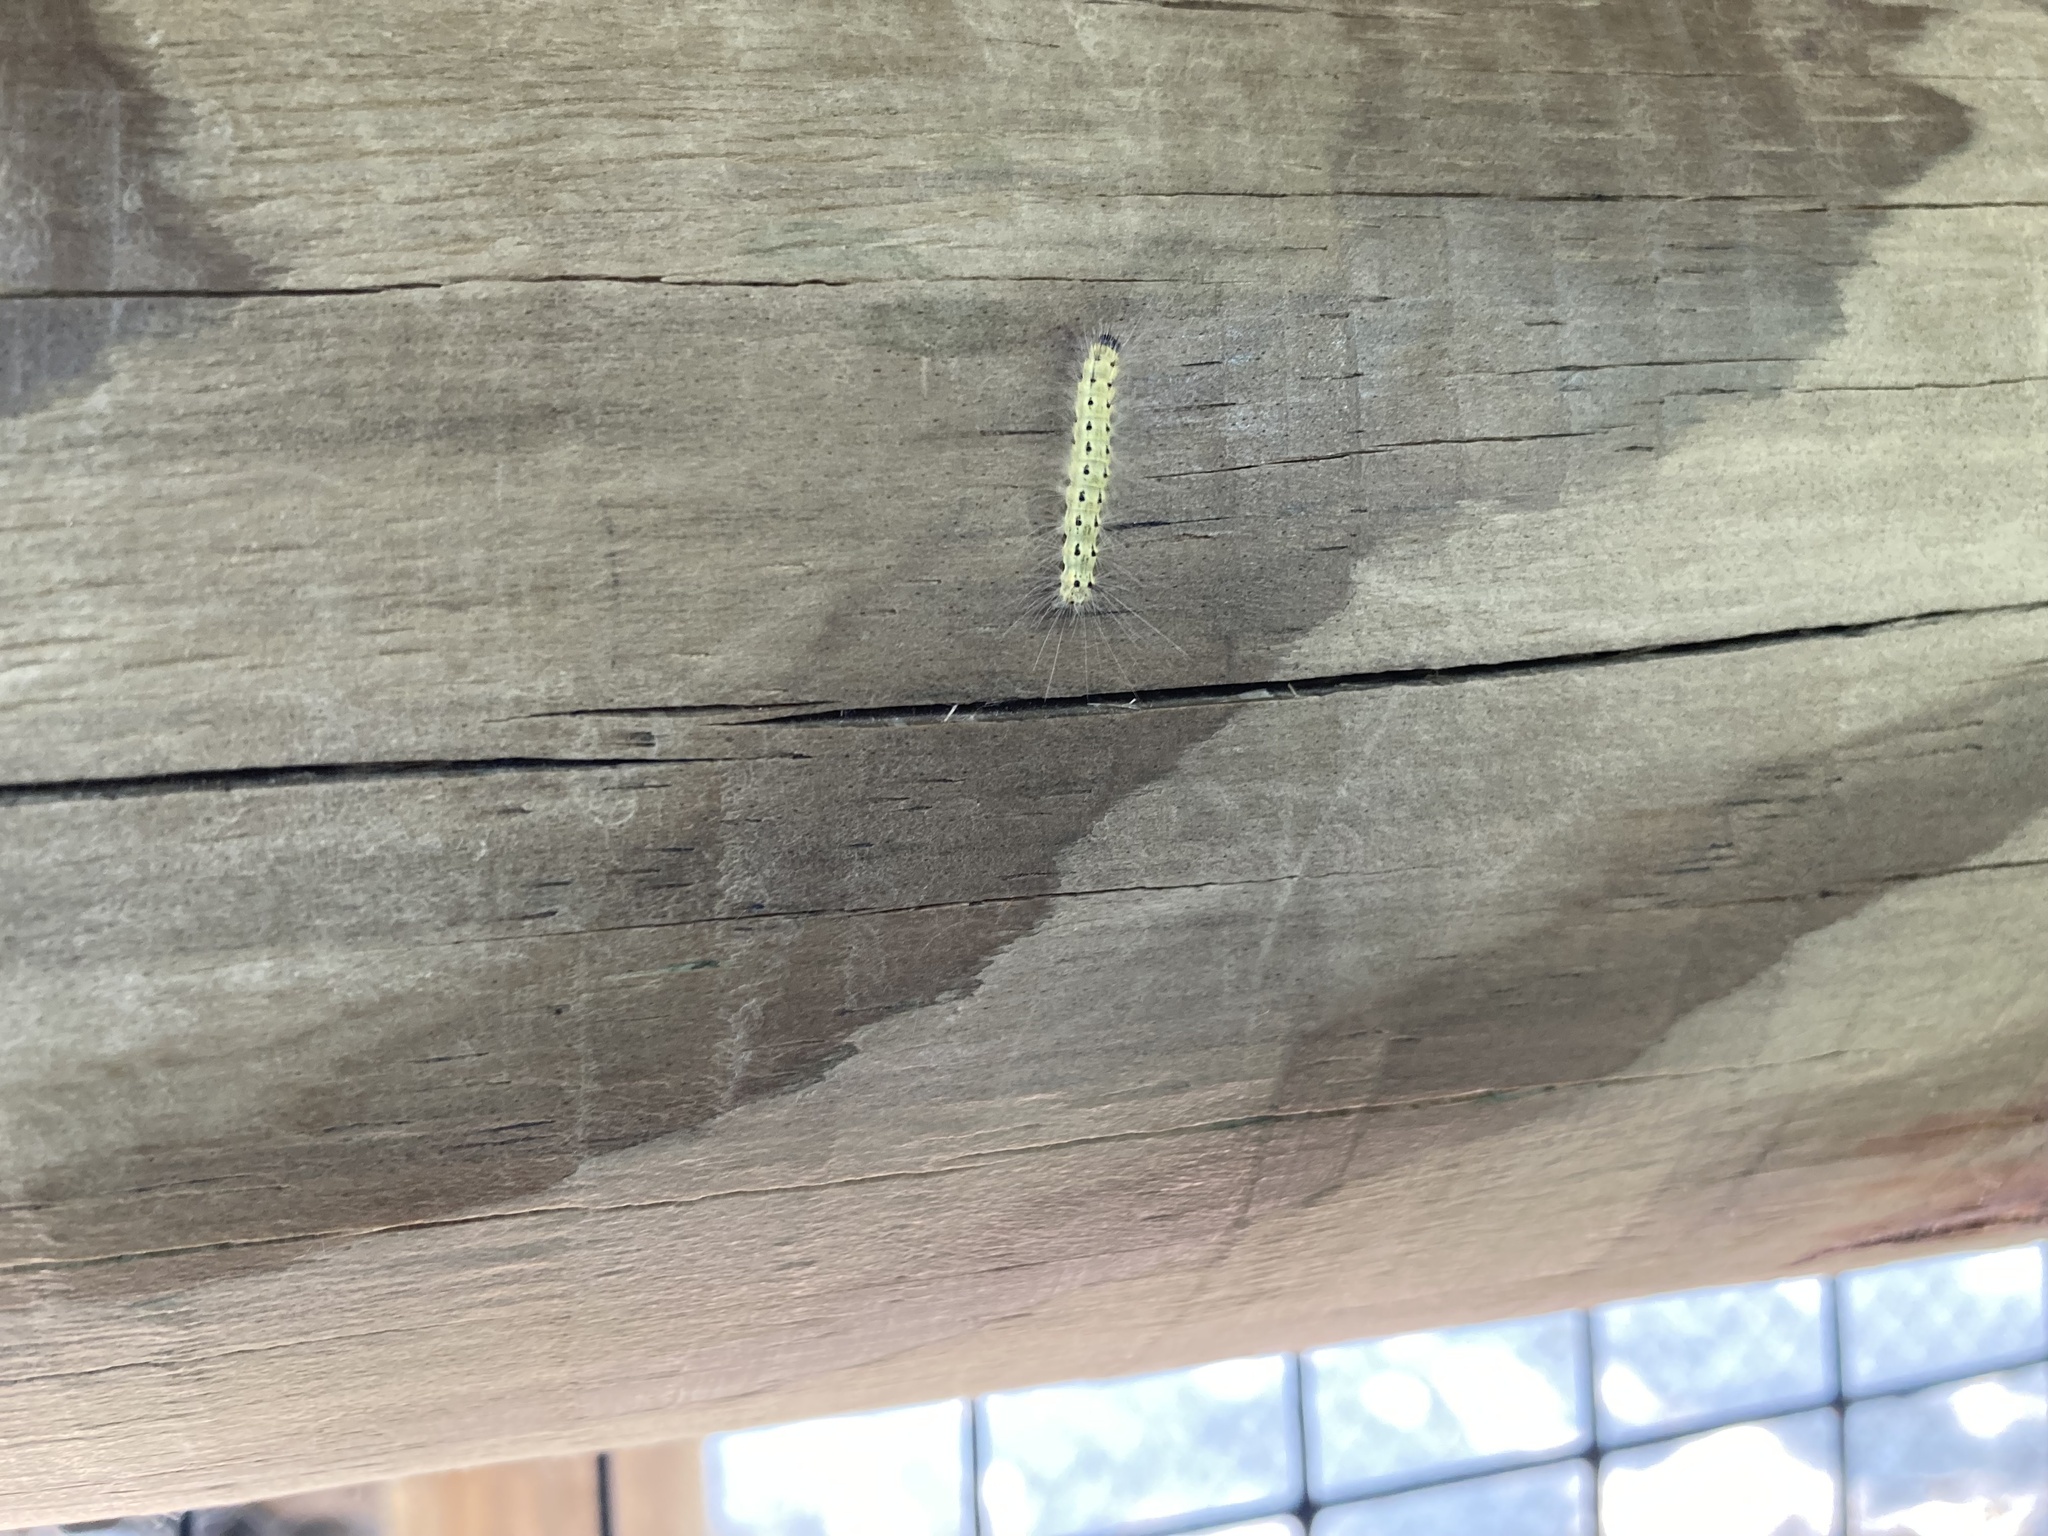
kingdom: Animalia
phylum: Arthropoda
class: Insecta
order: Lepidoptera
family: Erebidae
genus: Hyphantria
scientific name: Hyphantria cunea
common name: American white moth
